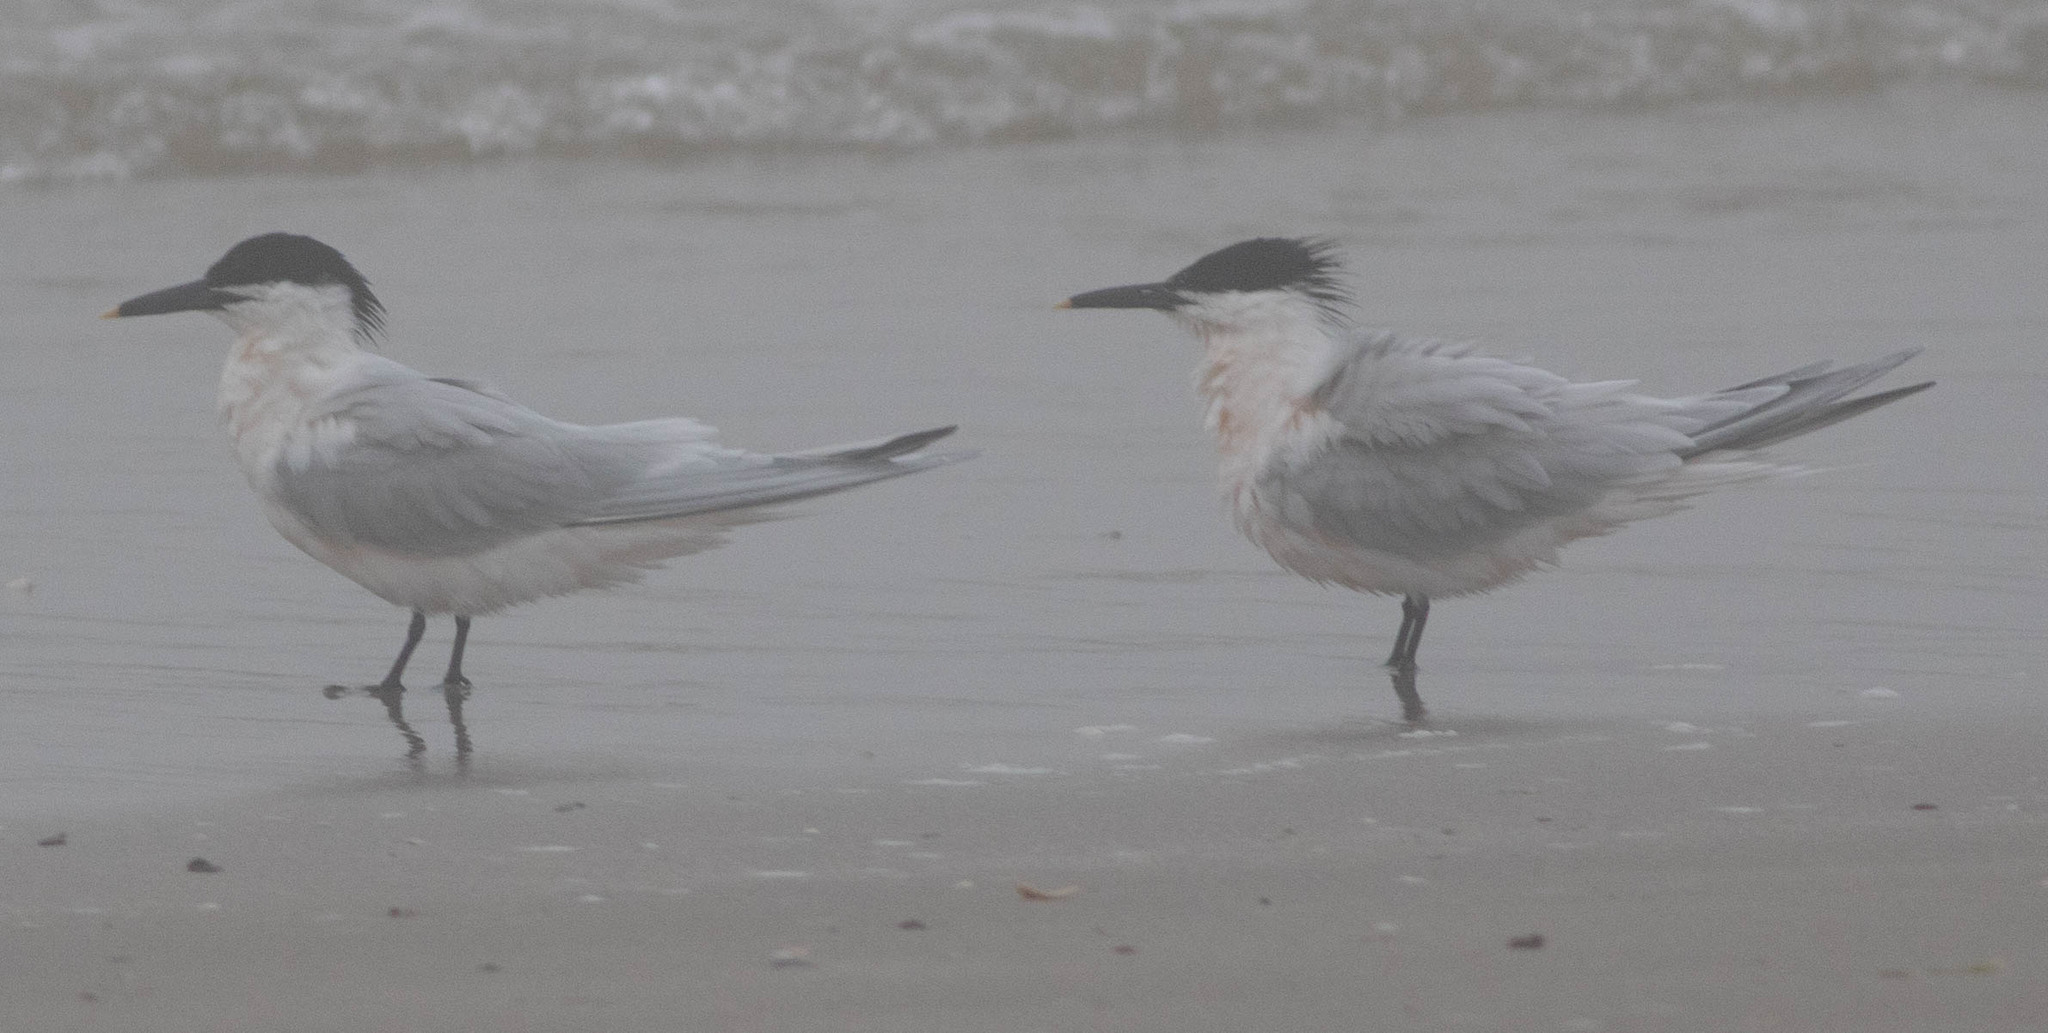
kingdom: Animalia
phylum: Chordata
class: Aves
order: Charadriiformes
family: Laridae
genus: Thalasseus
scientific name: Thalasseus sandvicensis
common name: Sandwich tern
